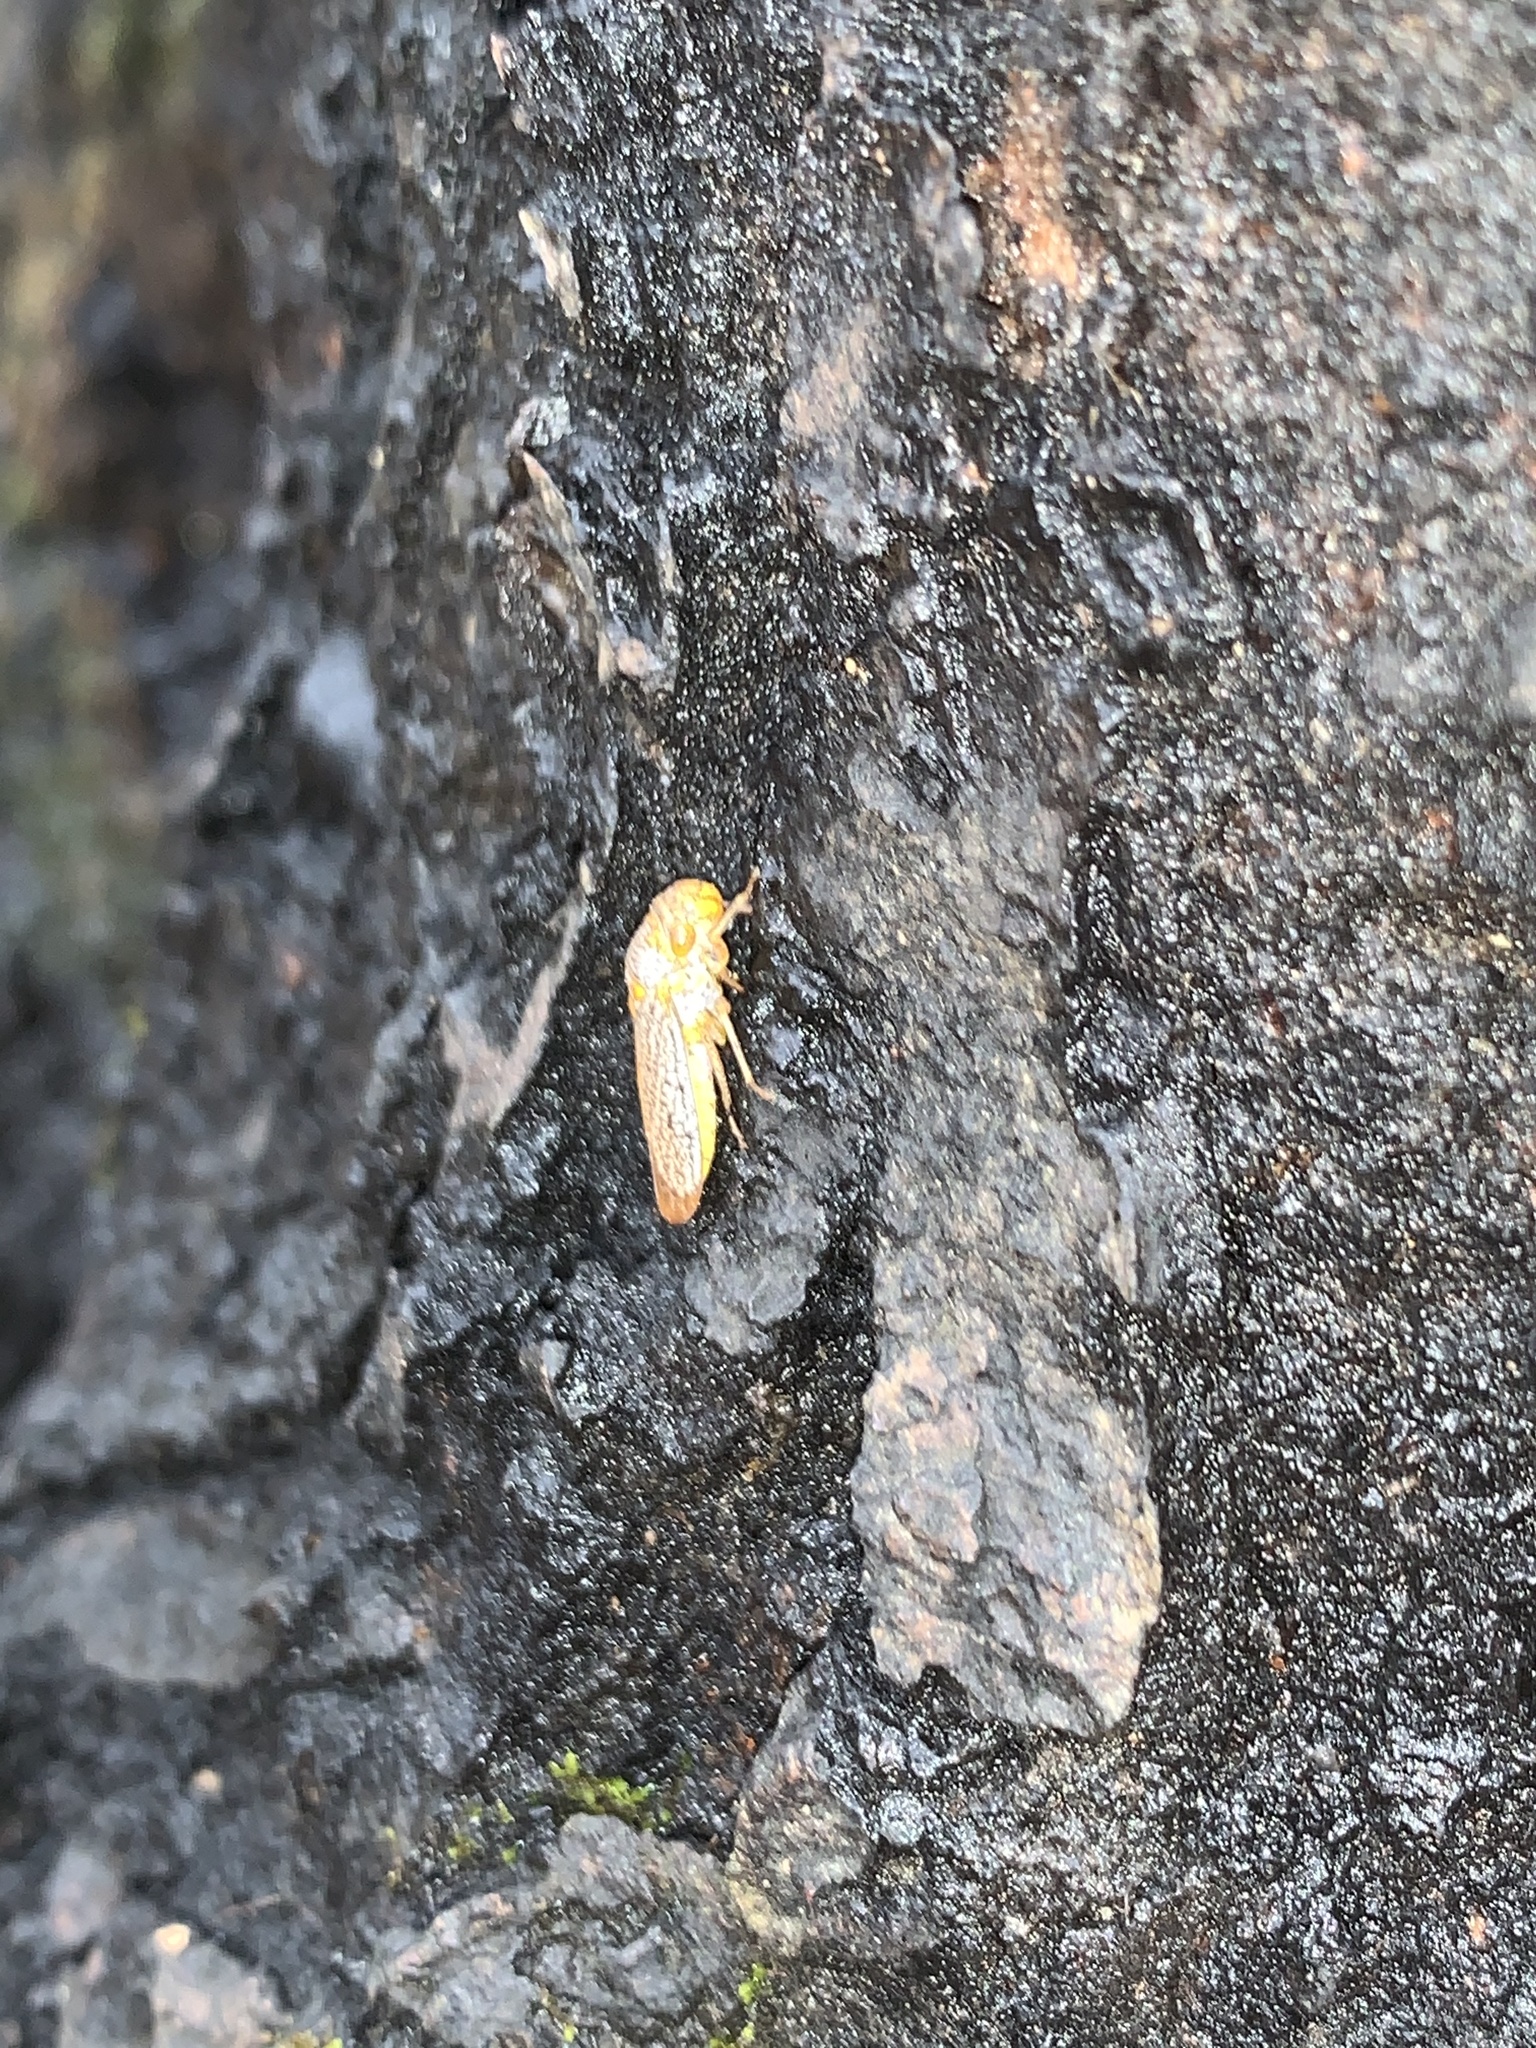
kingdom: Animalia
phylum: Arthropoda
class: Insecta
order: Hemiptera
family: Cicadellidae
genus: Oncometopia
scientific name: Oncometopia orbona
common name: Broad-headed sharpshooter
